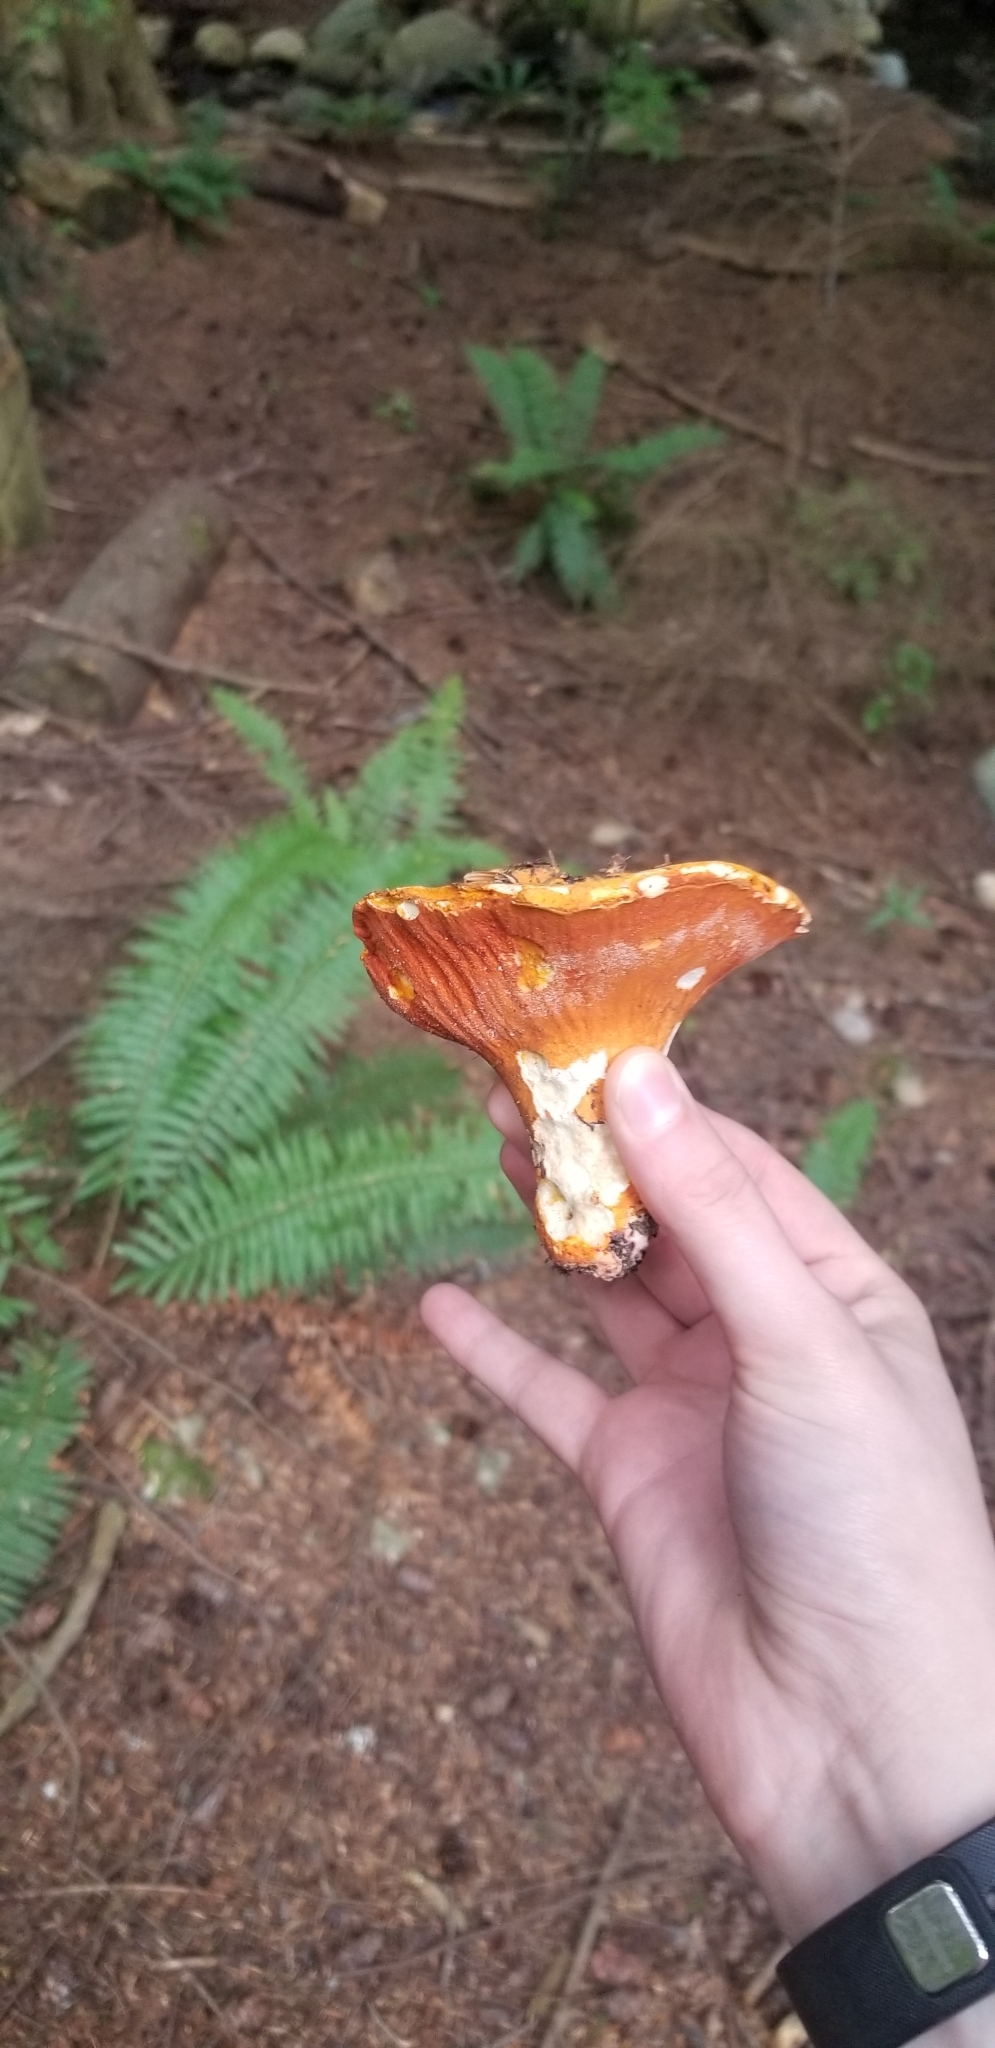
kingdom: Fungi
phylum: Ascomycota
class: Sordariomycetes
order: Hypocreales
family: Hypocreaceae
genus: Hypomyces
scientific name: Hypomyces lactifluorum
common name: Lobster mushroom
